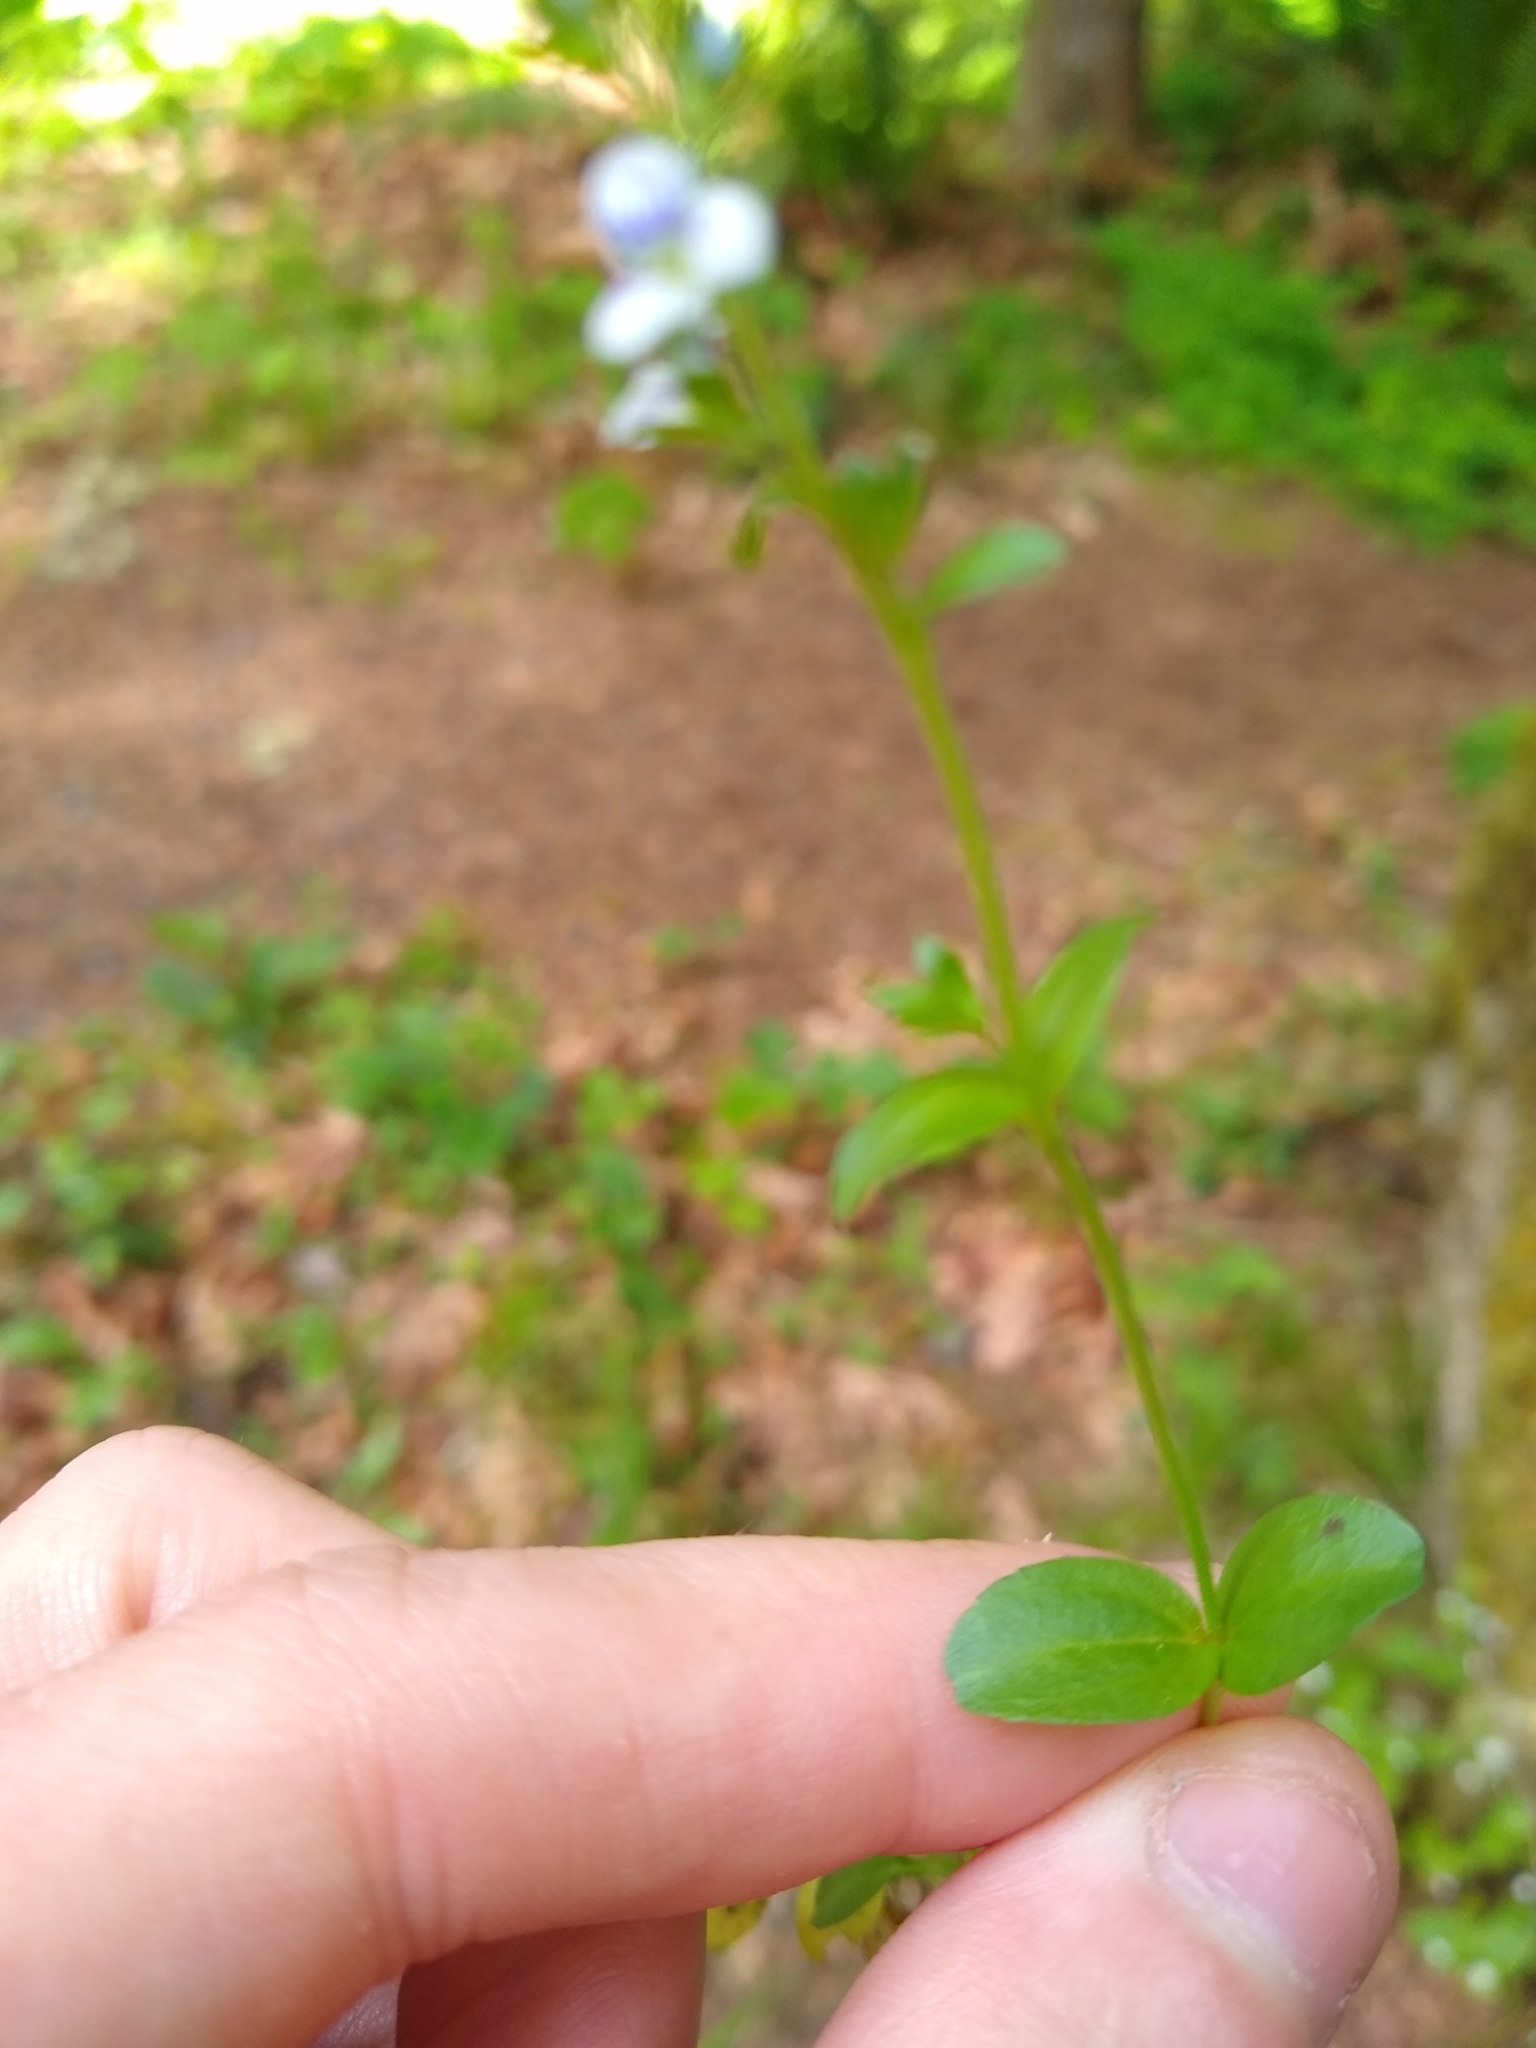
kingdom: Plantae
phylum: Tracheophyta
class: Magnoliopsida
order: Lamiales
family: Plantaginaceae
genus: Veronica
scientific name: Veronica serpyllifolia
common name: Thyme-leaved speedwell
